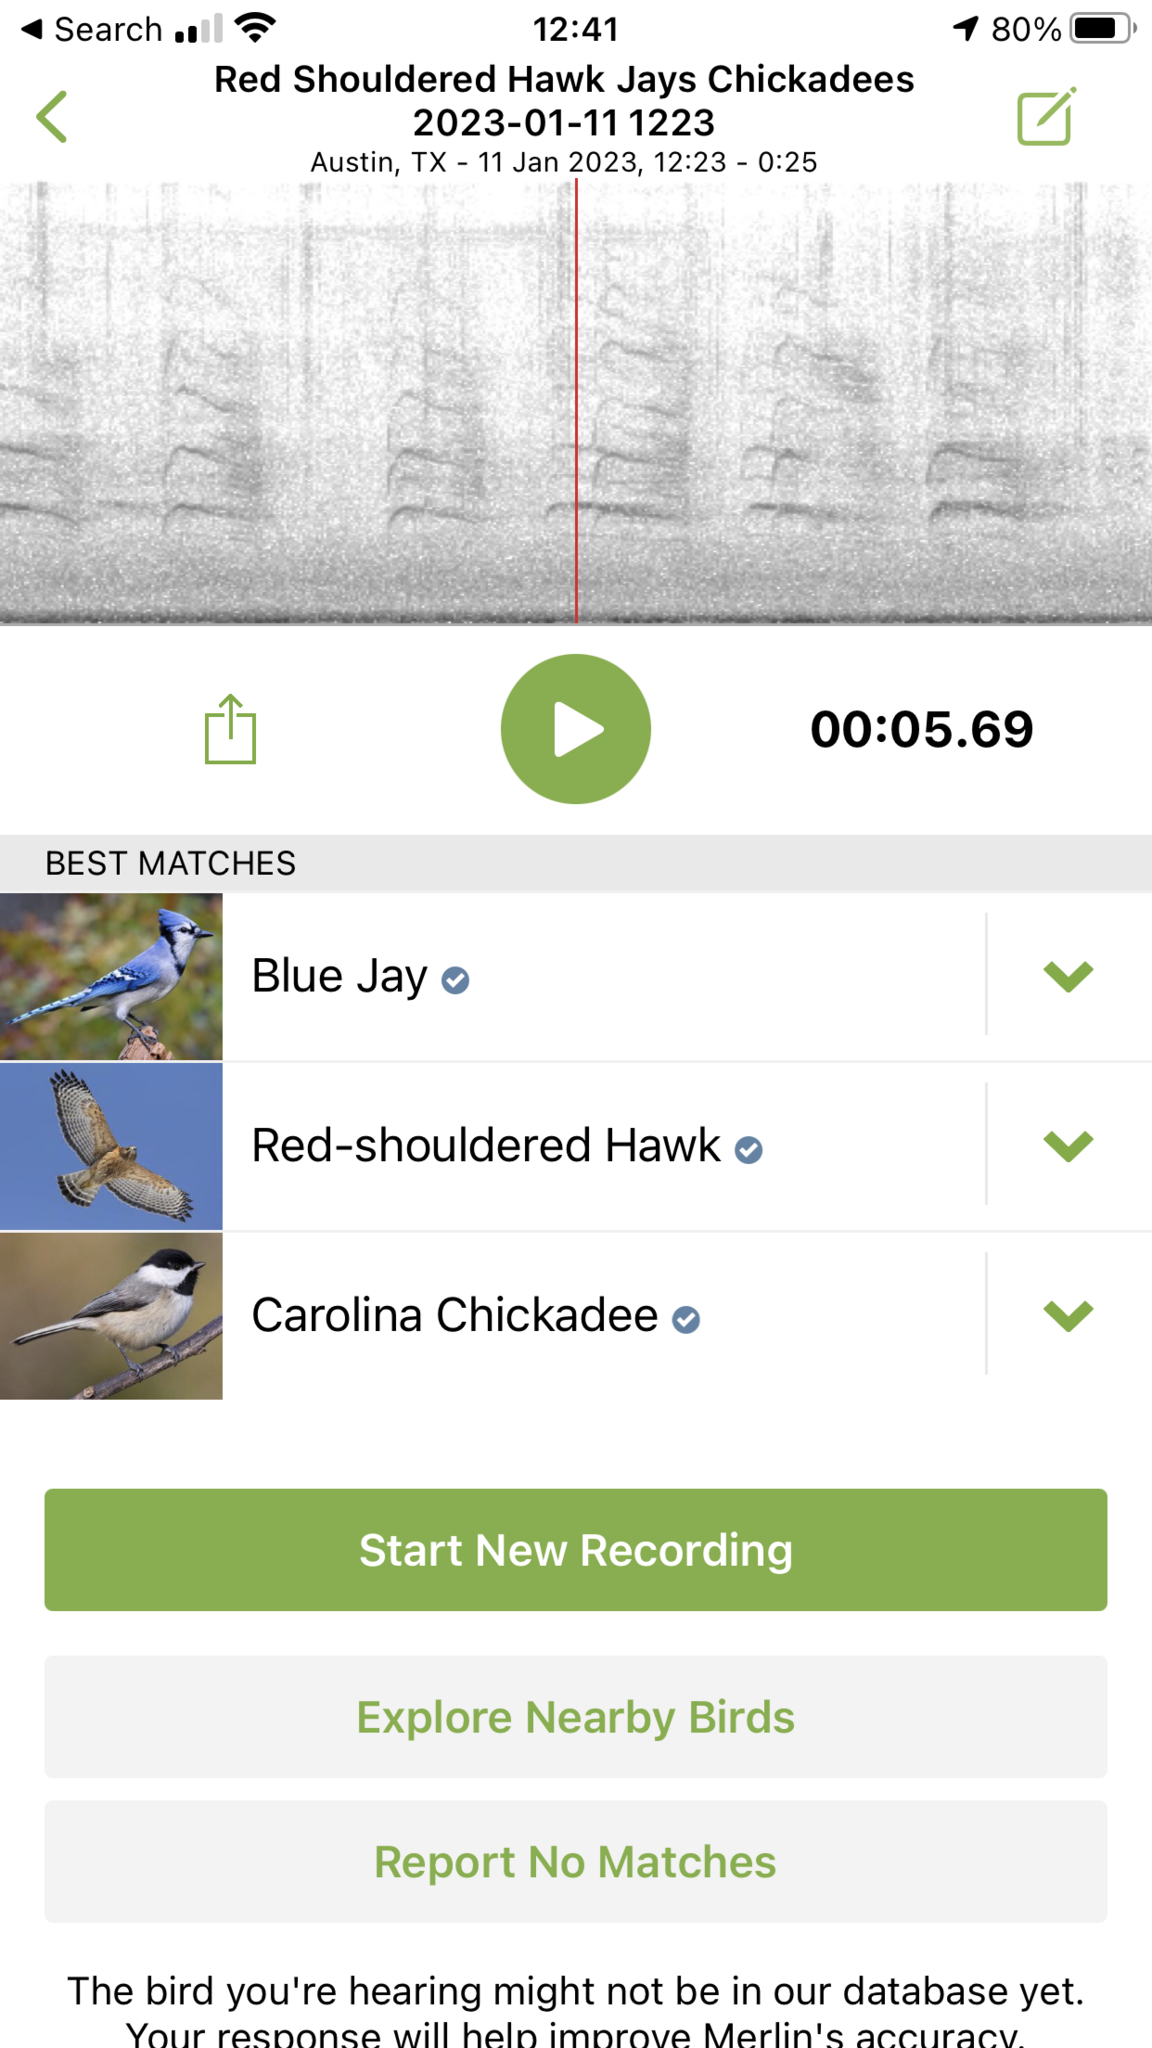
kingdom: Animalia
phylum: Chordata
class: Aves
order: Passeriformes
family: Corvidae
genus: Cyanocitta
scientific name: Cyanocitta cristata
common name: Blue jay
